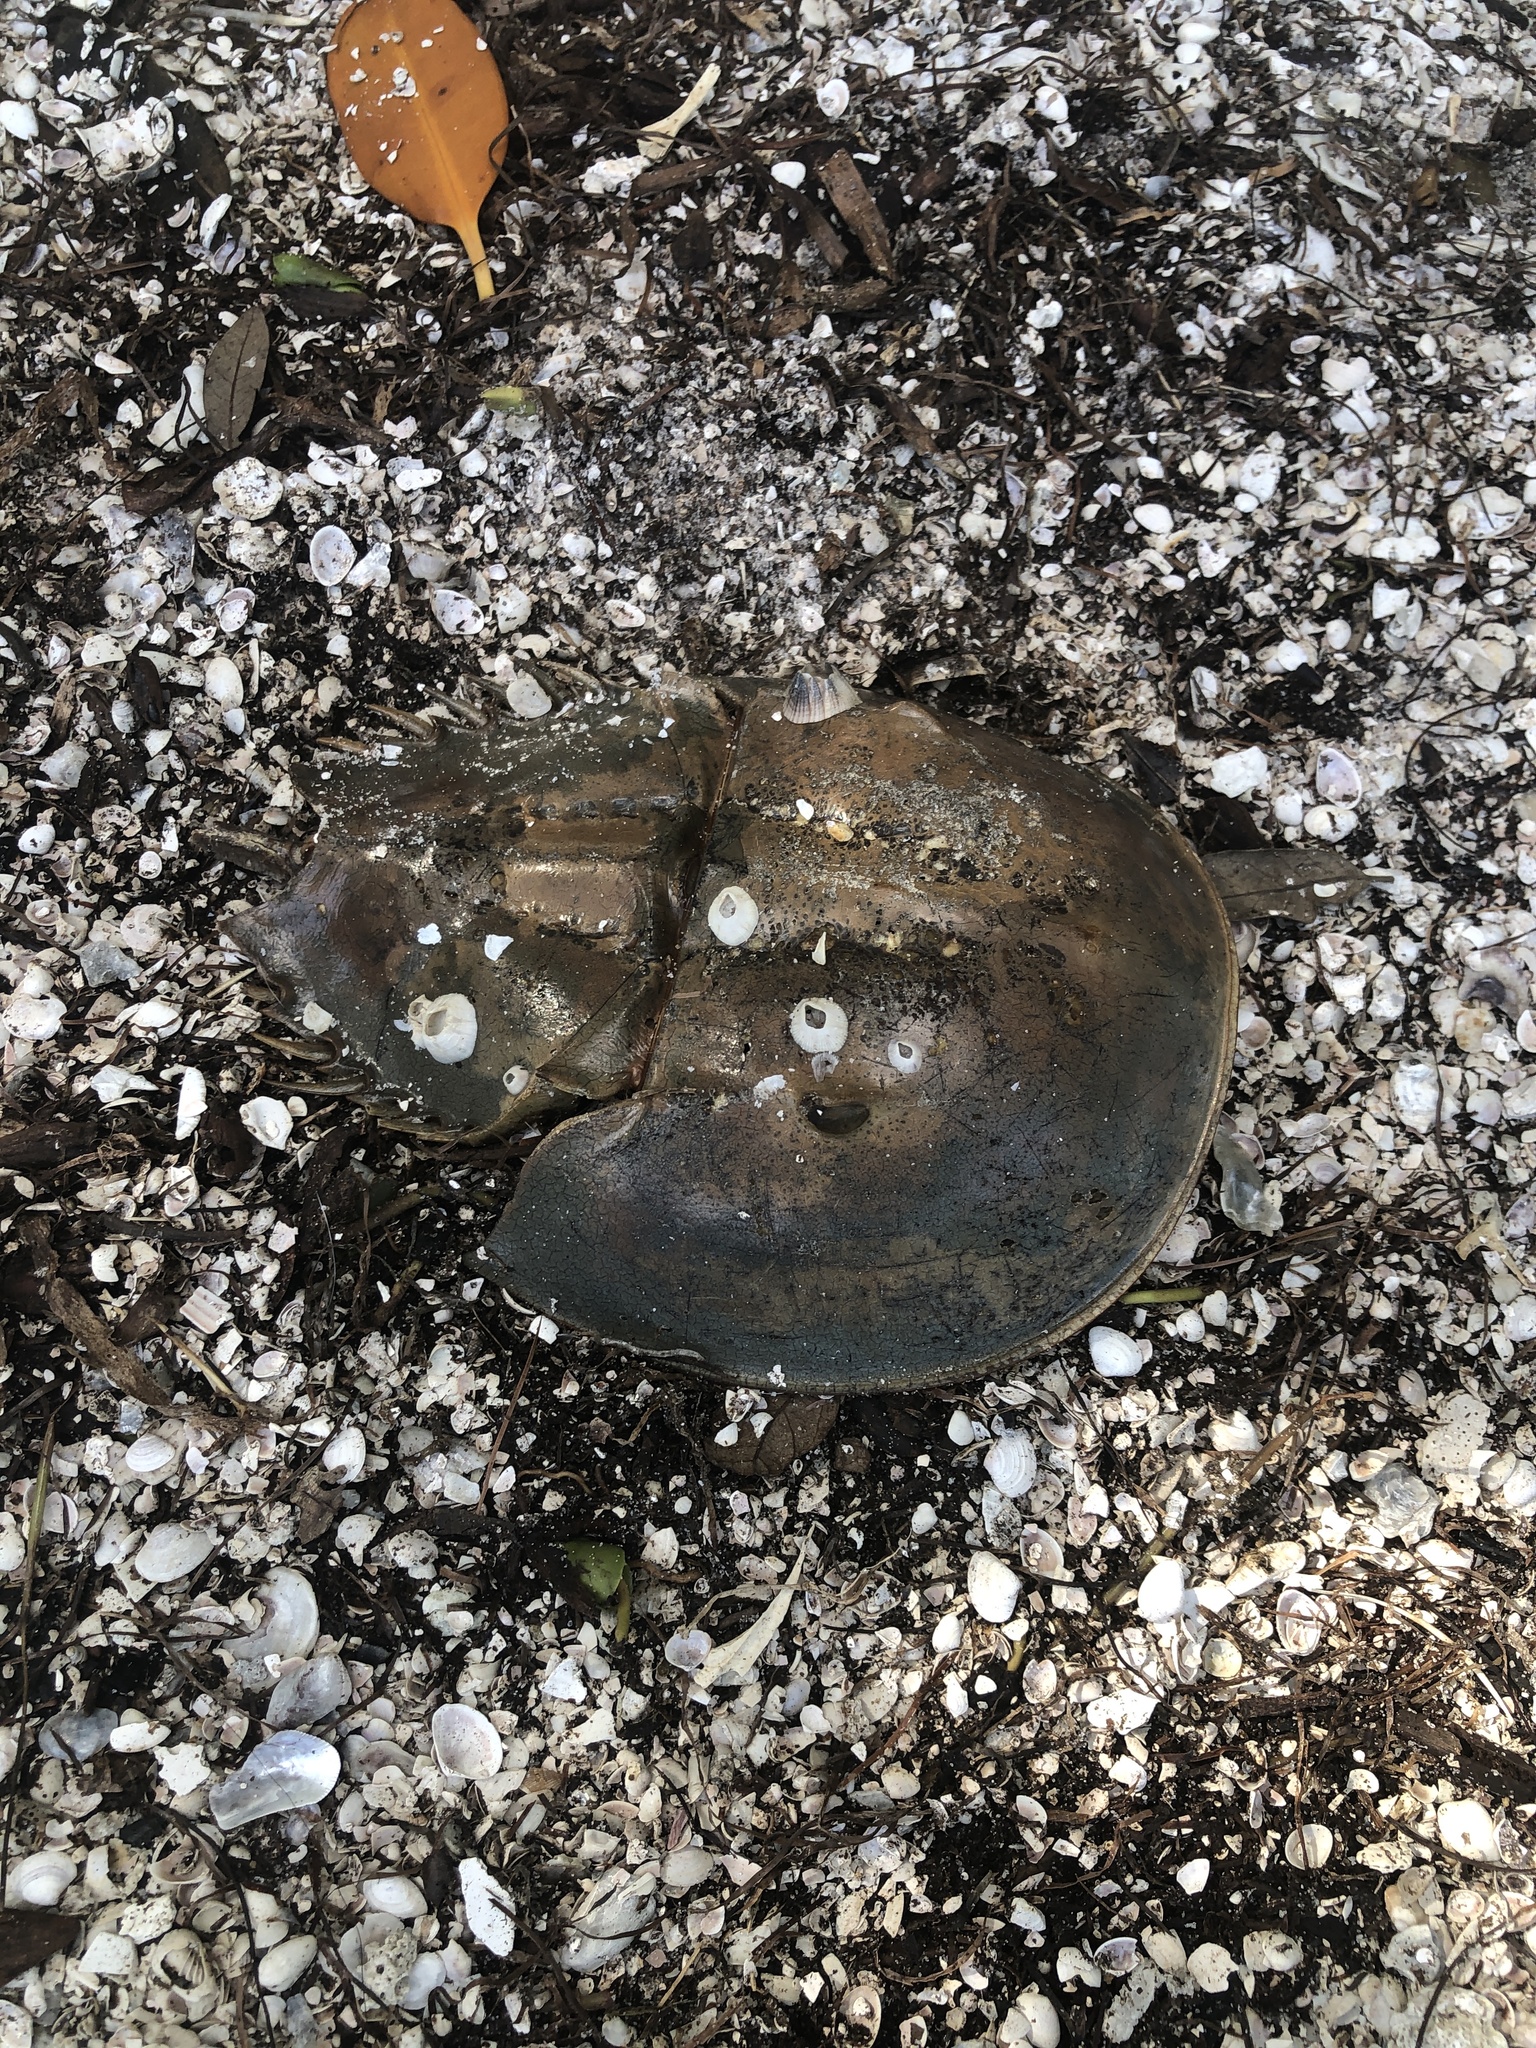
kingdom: Animalia
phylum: Arthropoda
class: Merostomata
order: Xiphosurida
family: Limulidae
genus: Limulus
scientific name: Limulus polyphemus
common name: Horseshoe crab
